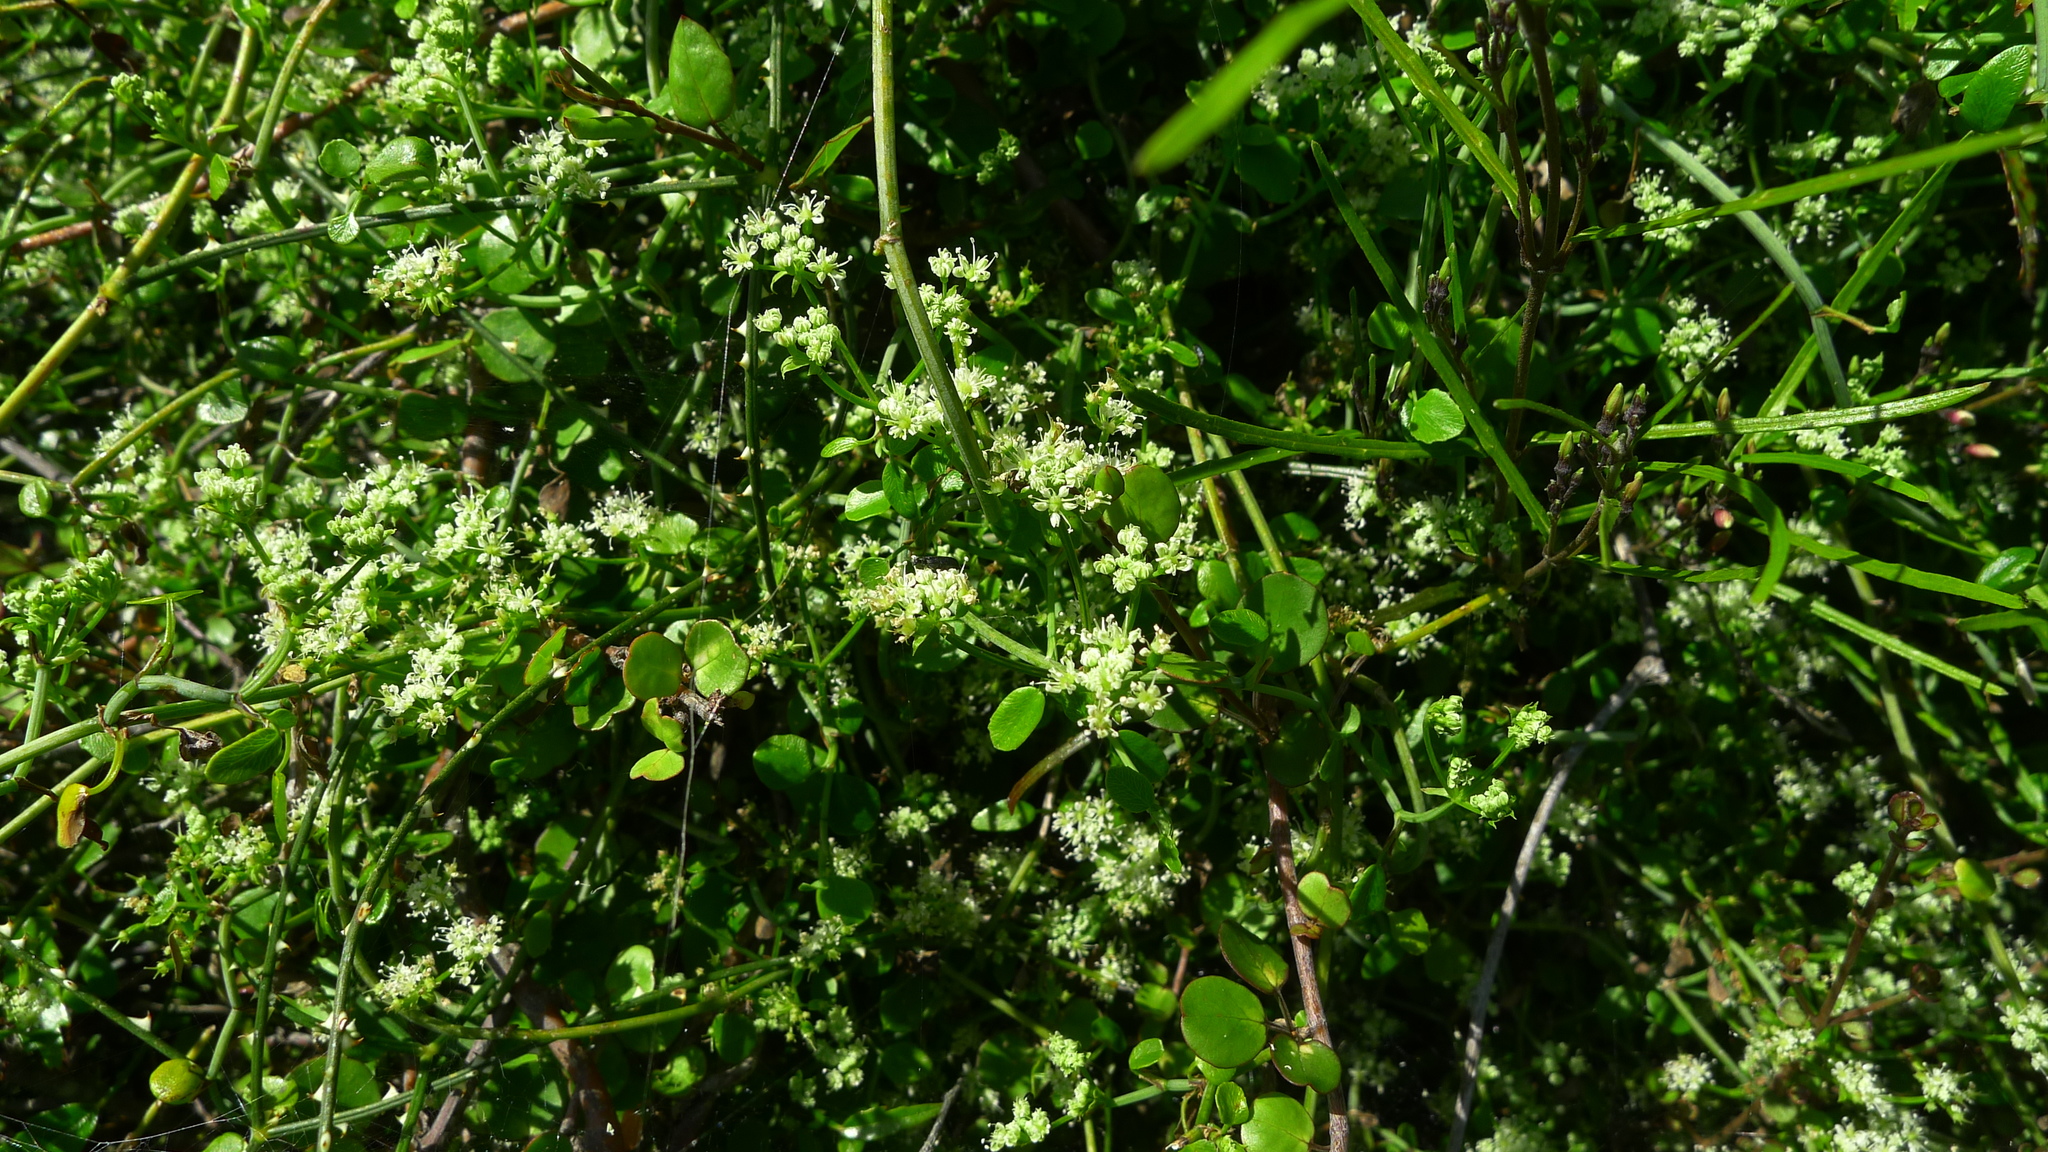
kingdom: Plantae
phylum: Tracheophyta
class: Magnoliopsida
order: Apiales
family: Apiaceae
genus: Scandia
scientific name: Scandia geniculata
